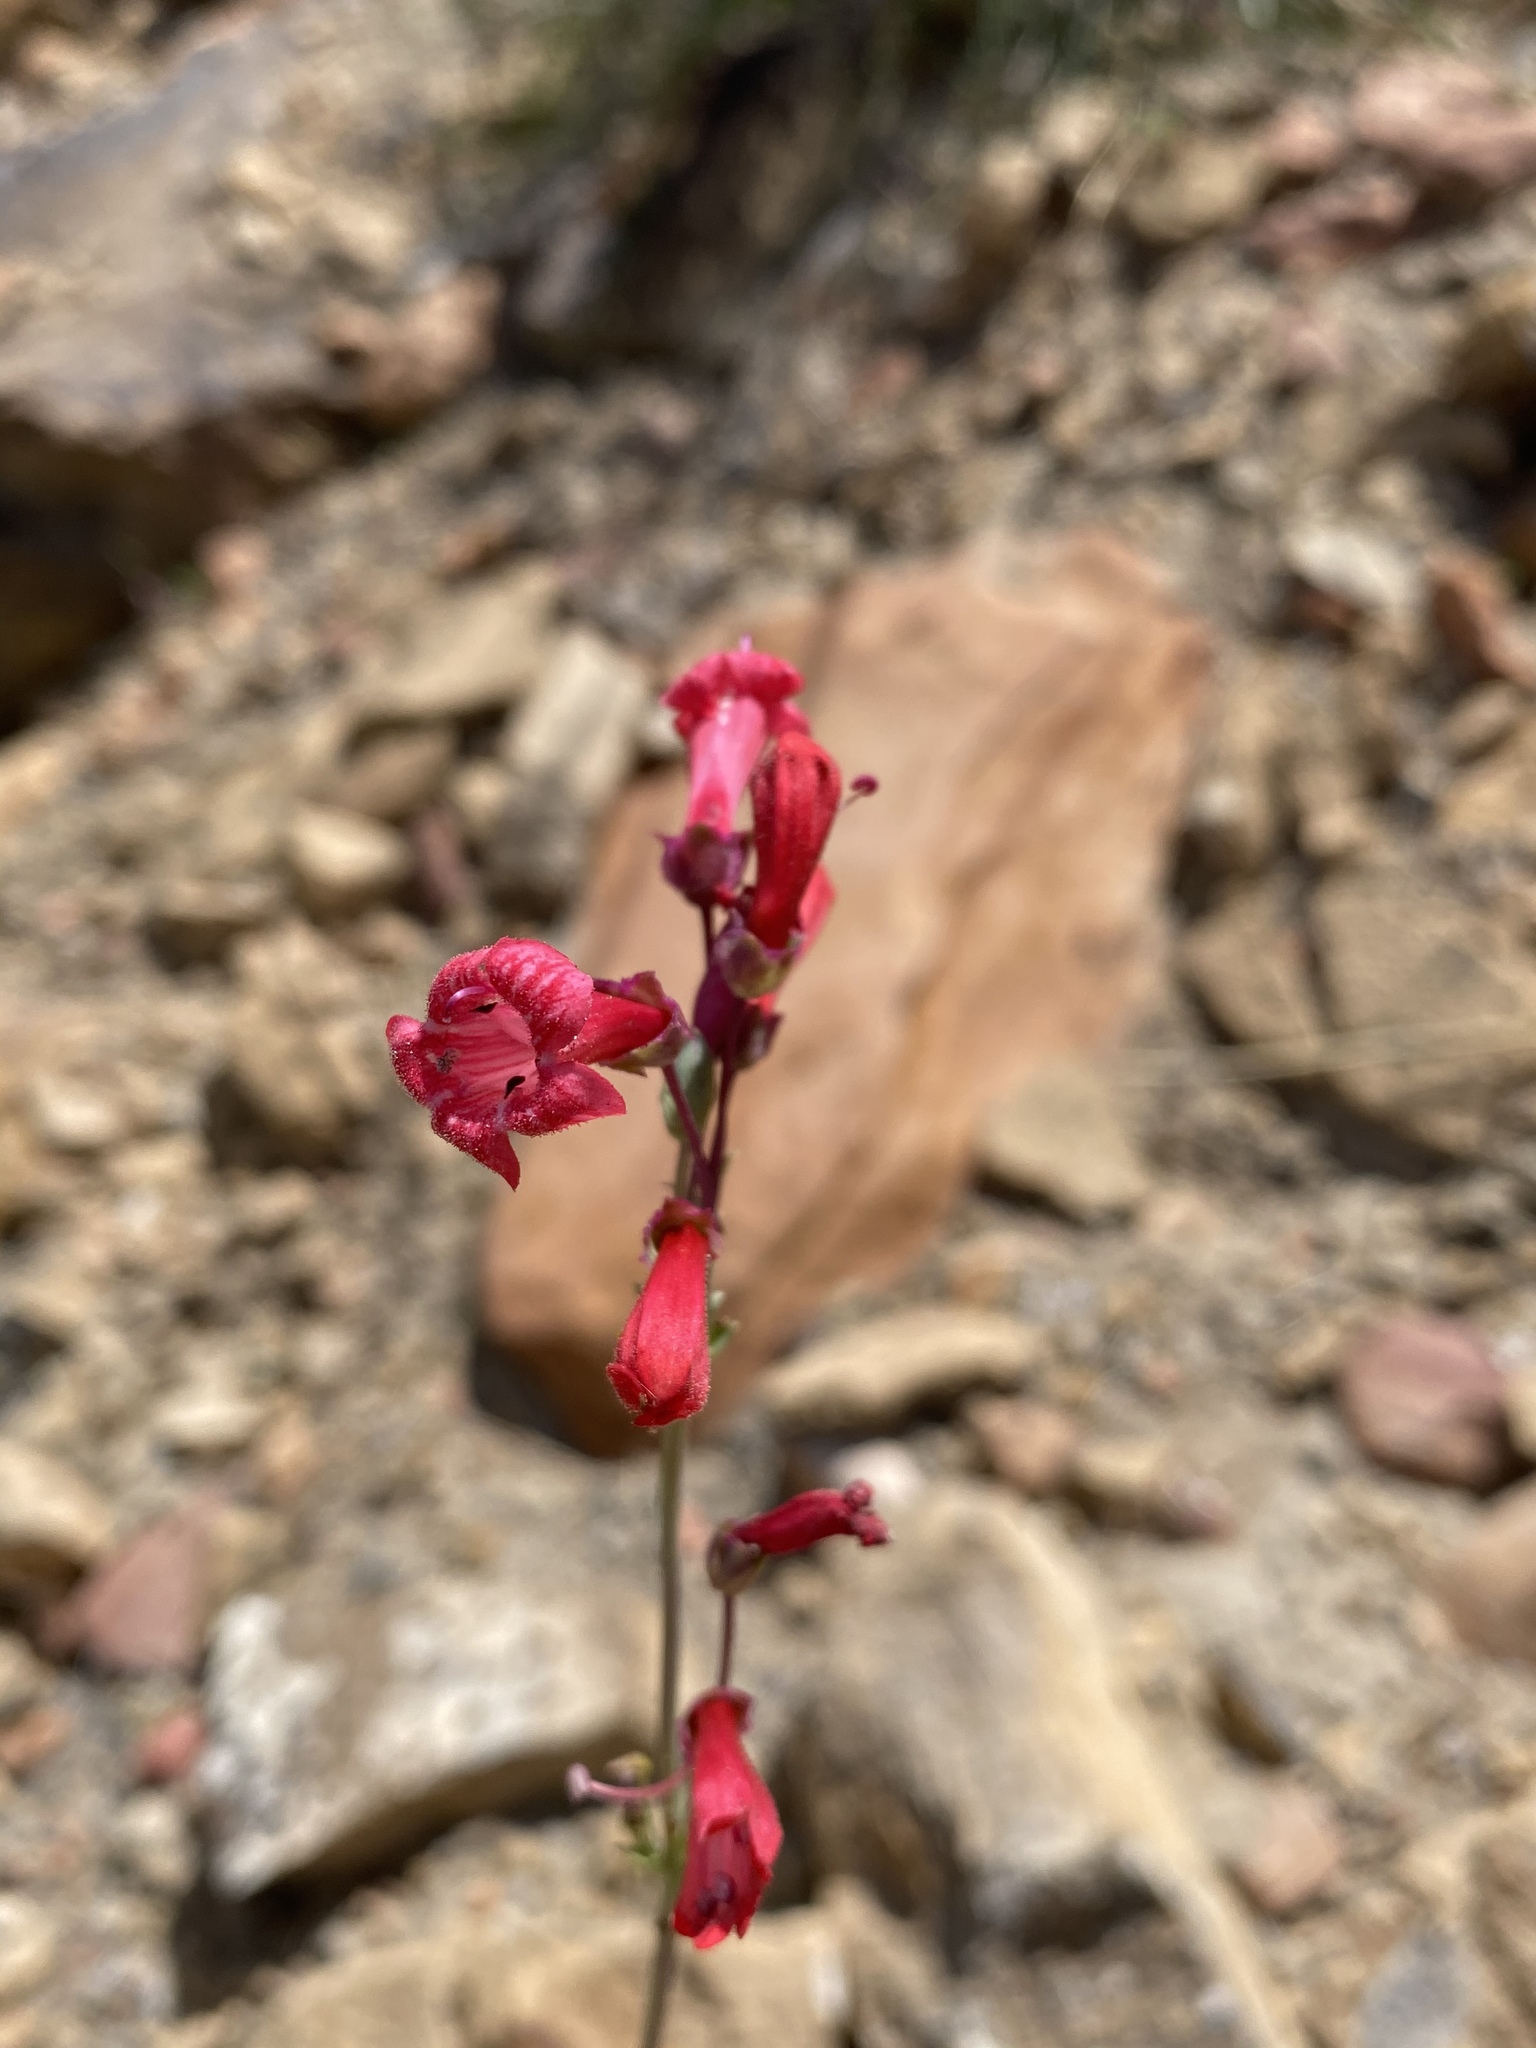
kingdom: Plantae
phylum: Tracheophyta
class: Magnoliopsida
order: Lamiales
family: Plantaginaceae
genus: Penstemon
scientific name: Penstemon utahensis
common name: Utah penstemon
